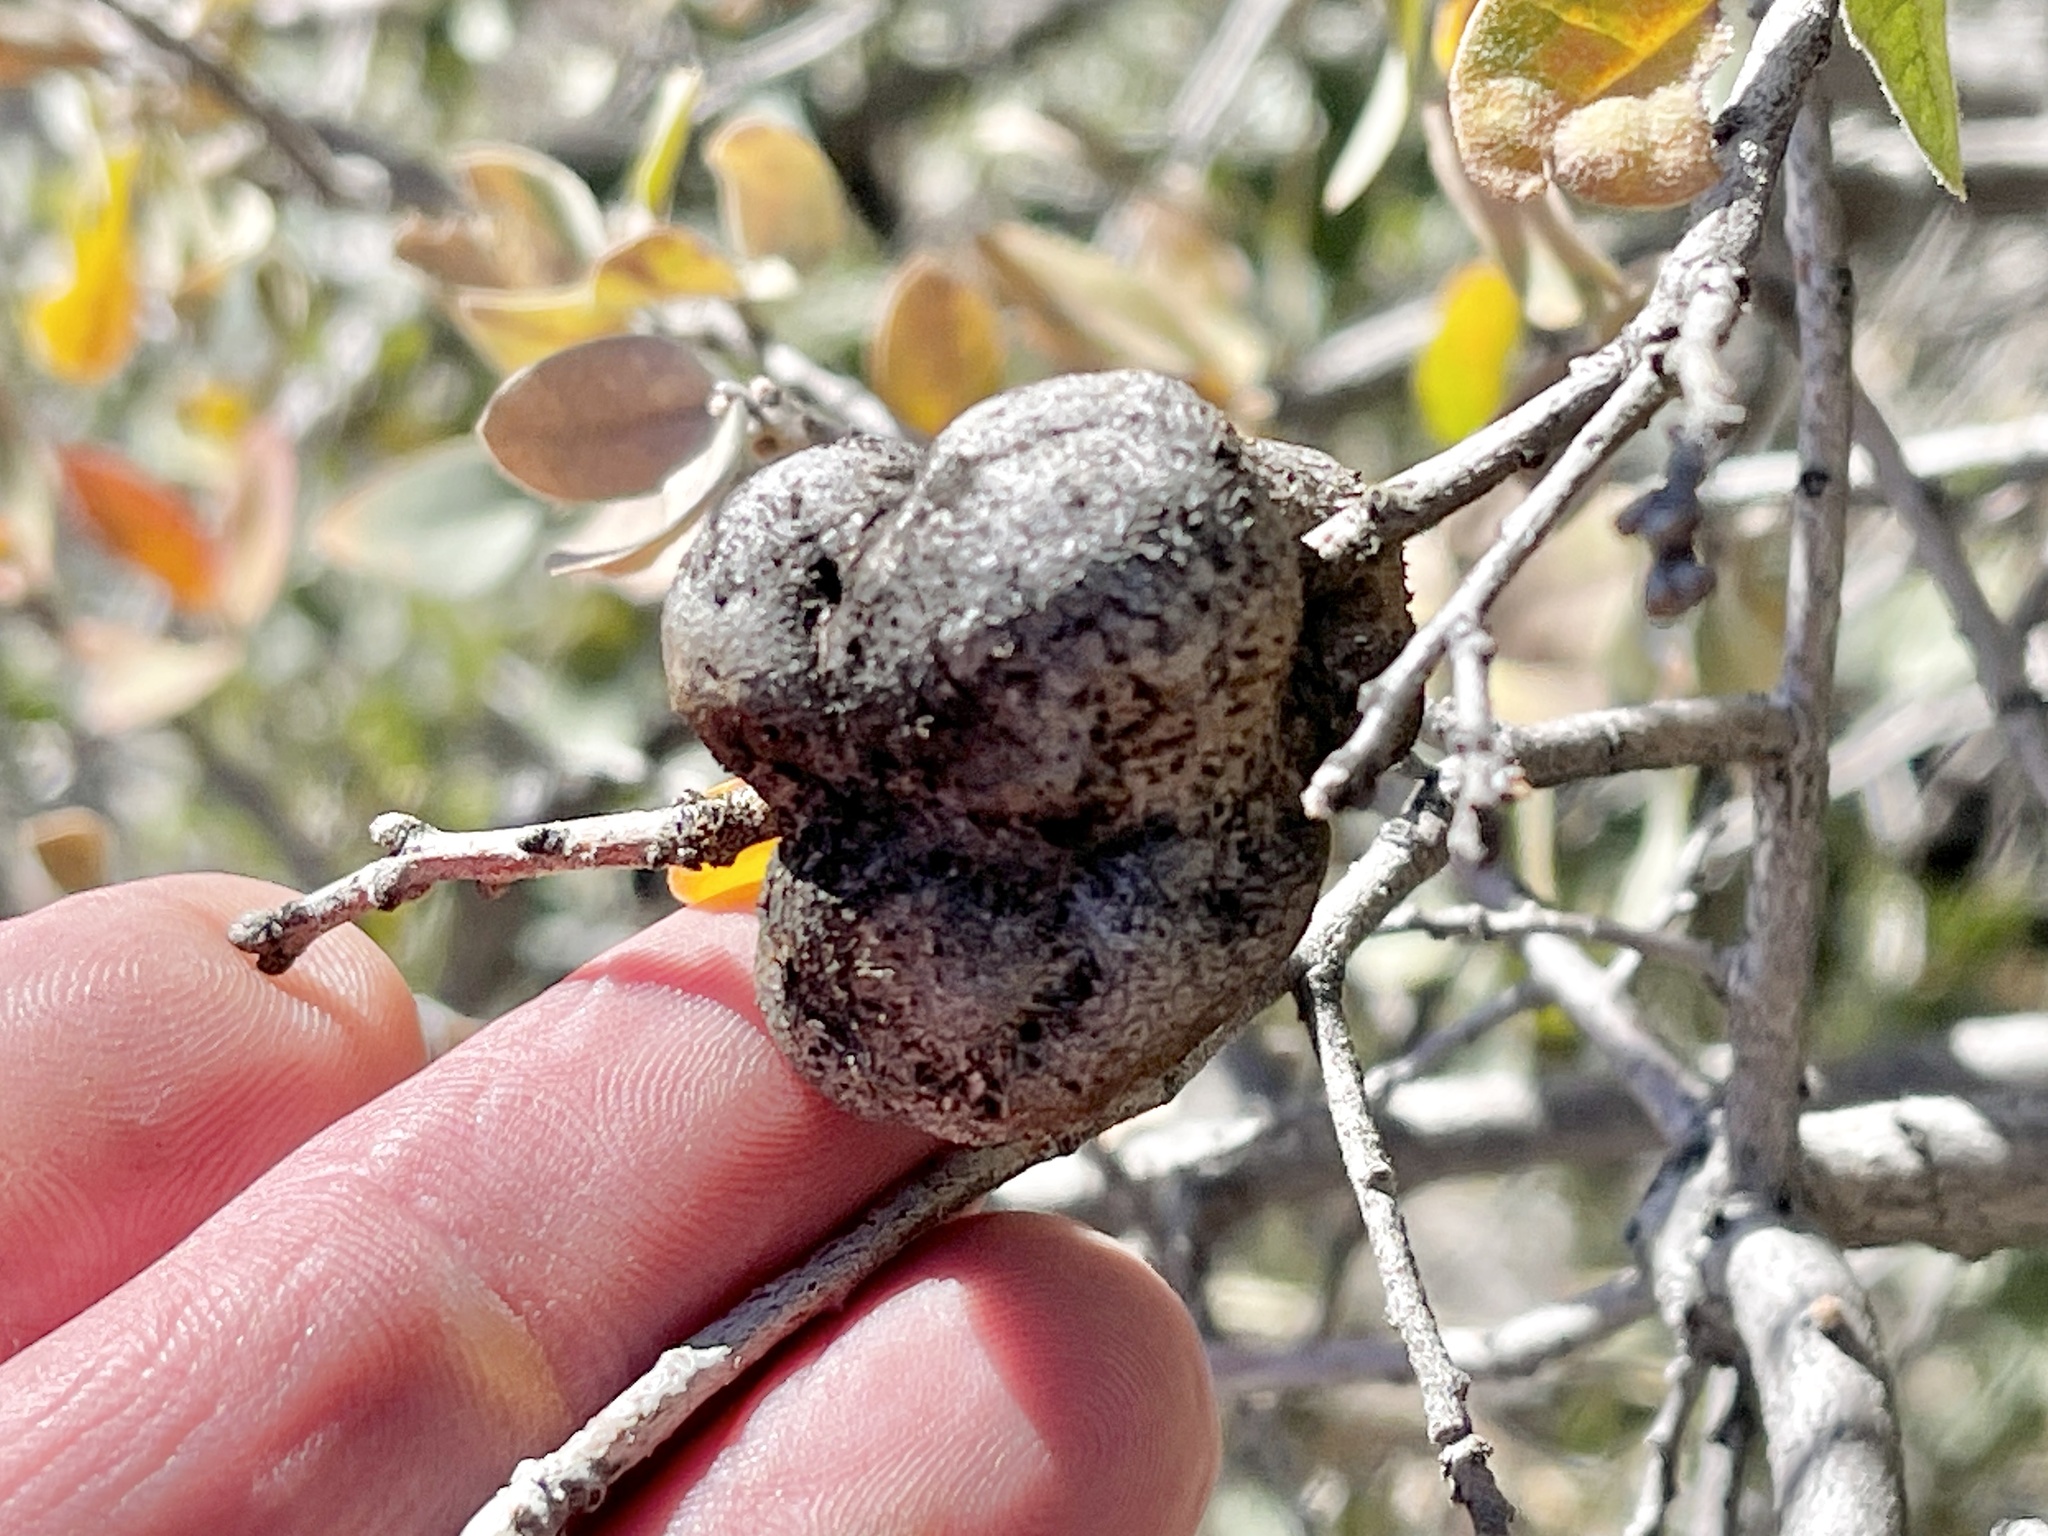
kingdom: Animalia
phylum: Arthropoda
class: Insecta
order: Hymenoptera
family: Cynipidae
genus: Andricus
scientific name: Andricus
